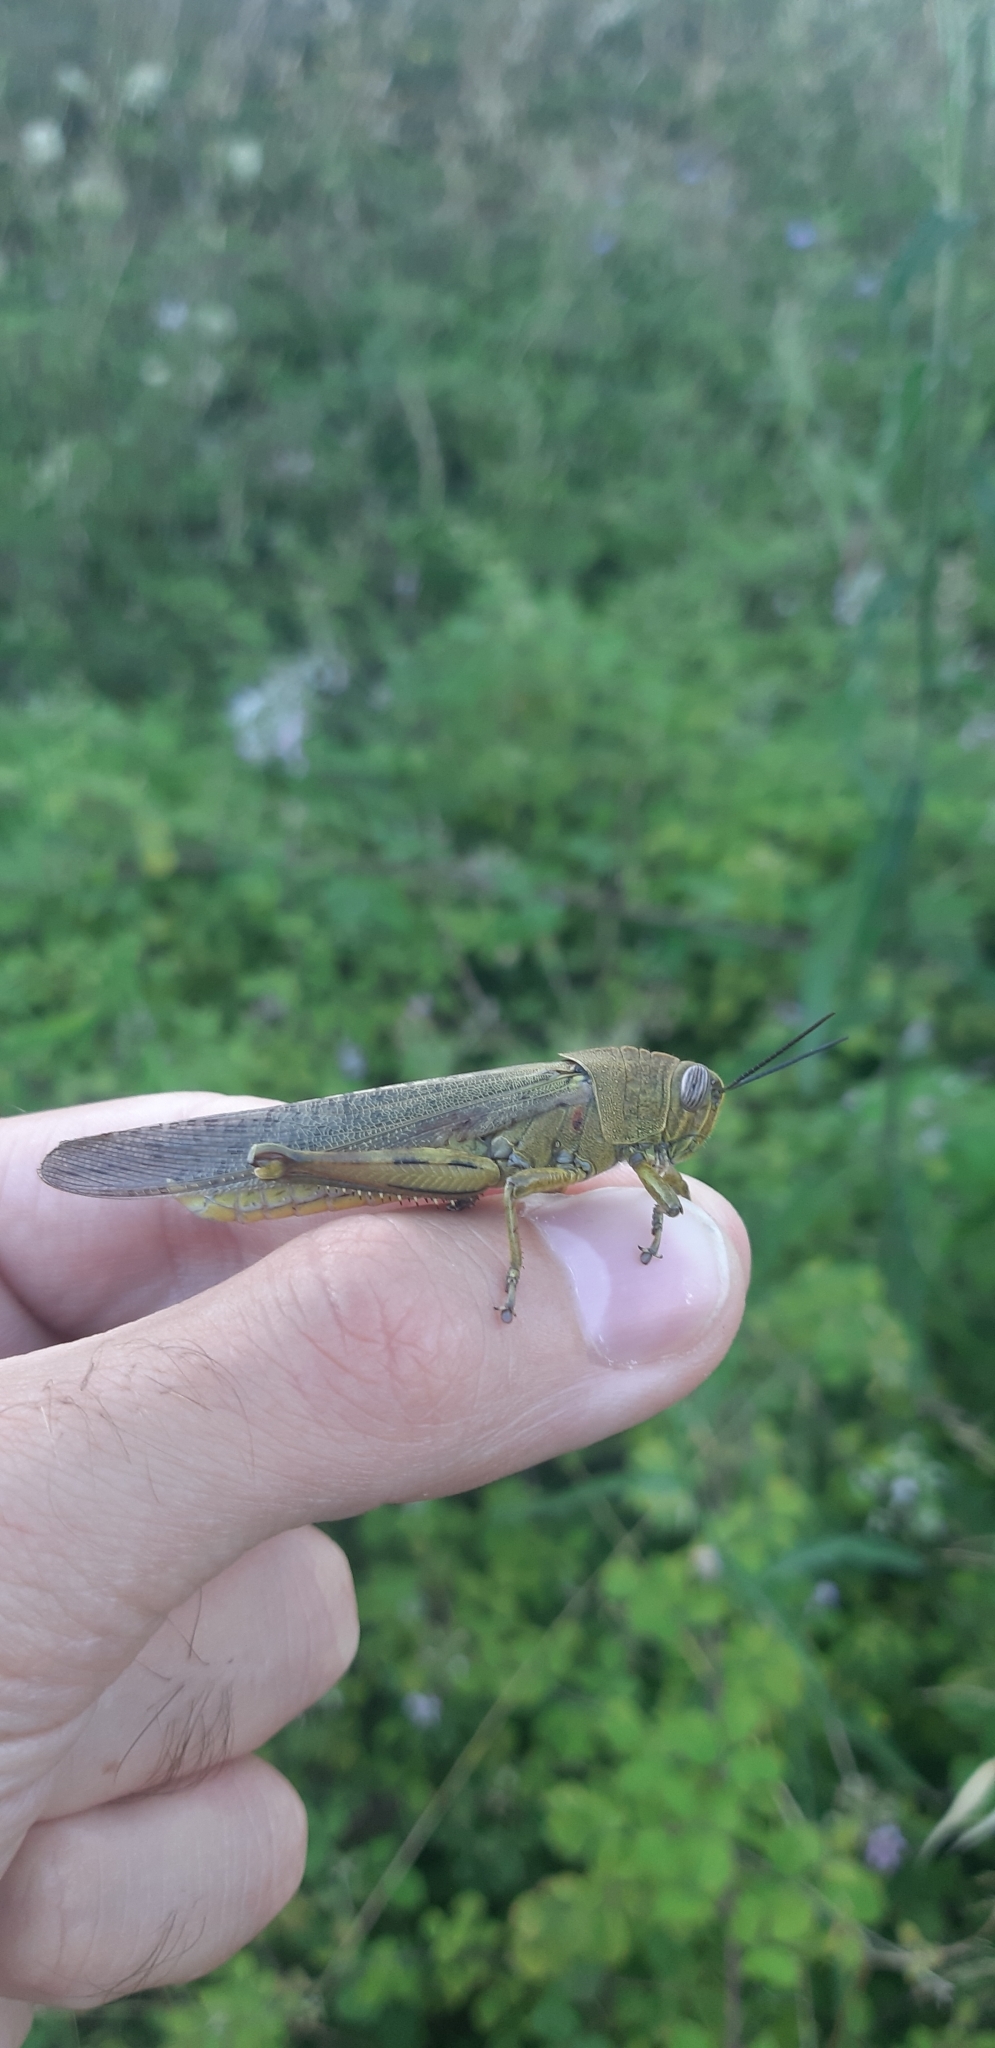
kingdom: Animalia
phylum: Arthropoda
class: Insecta
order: Orthoptera
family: Acrididae
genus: Anacridium
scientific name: Anacridium aegyptium
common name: Egyptian grasshopper
